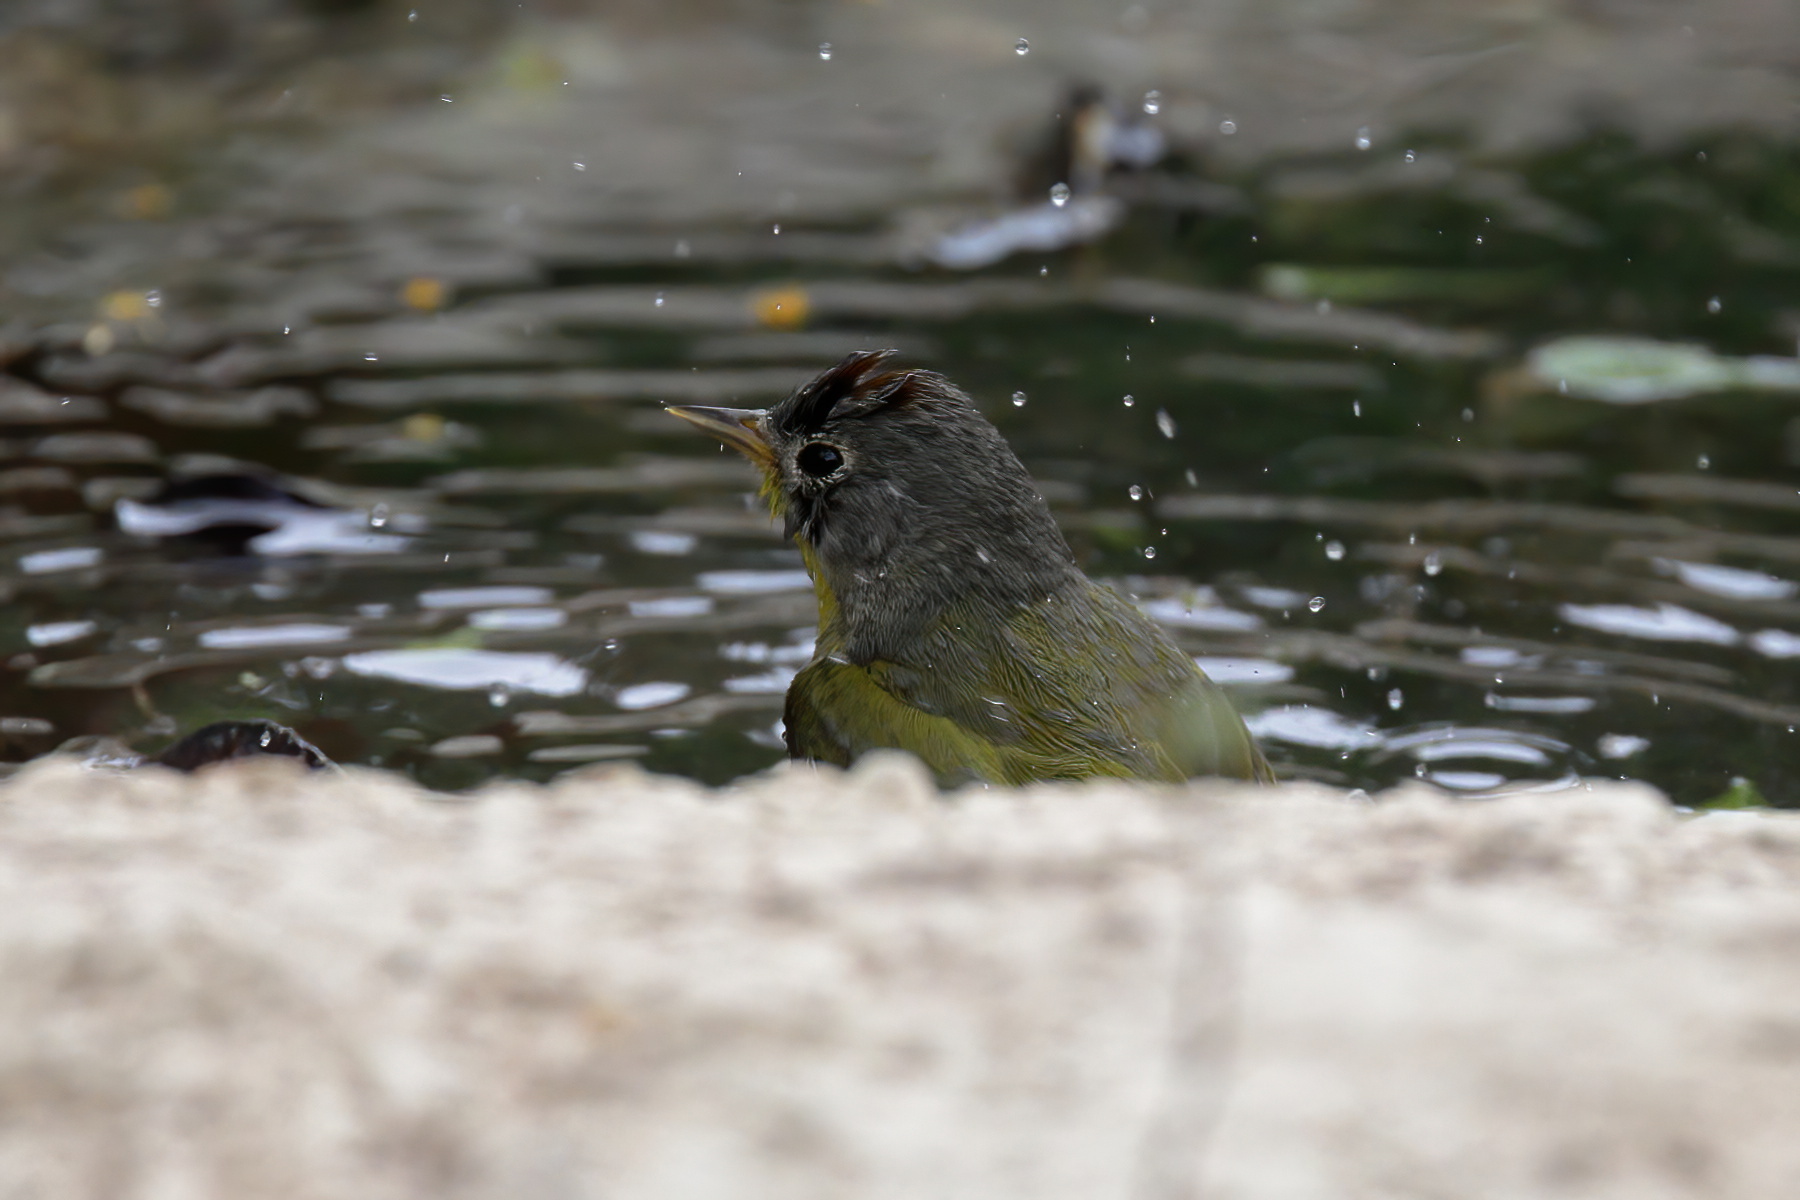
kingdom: Animalia
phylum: Chordata
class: Aves
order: Passeriformes
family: Parulidae
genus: Leiothlypis
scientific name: Leiothlypis ruficapilla
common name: Nashville warbler
